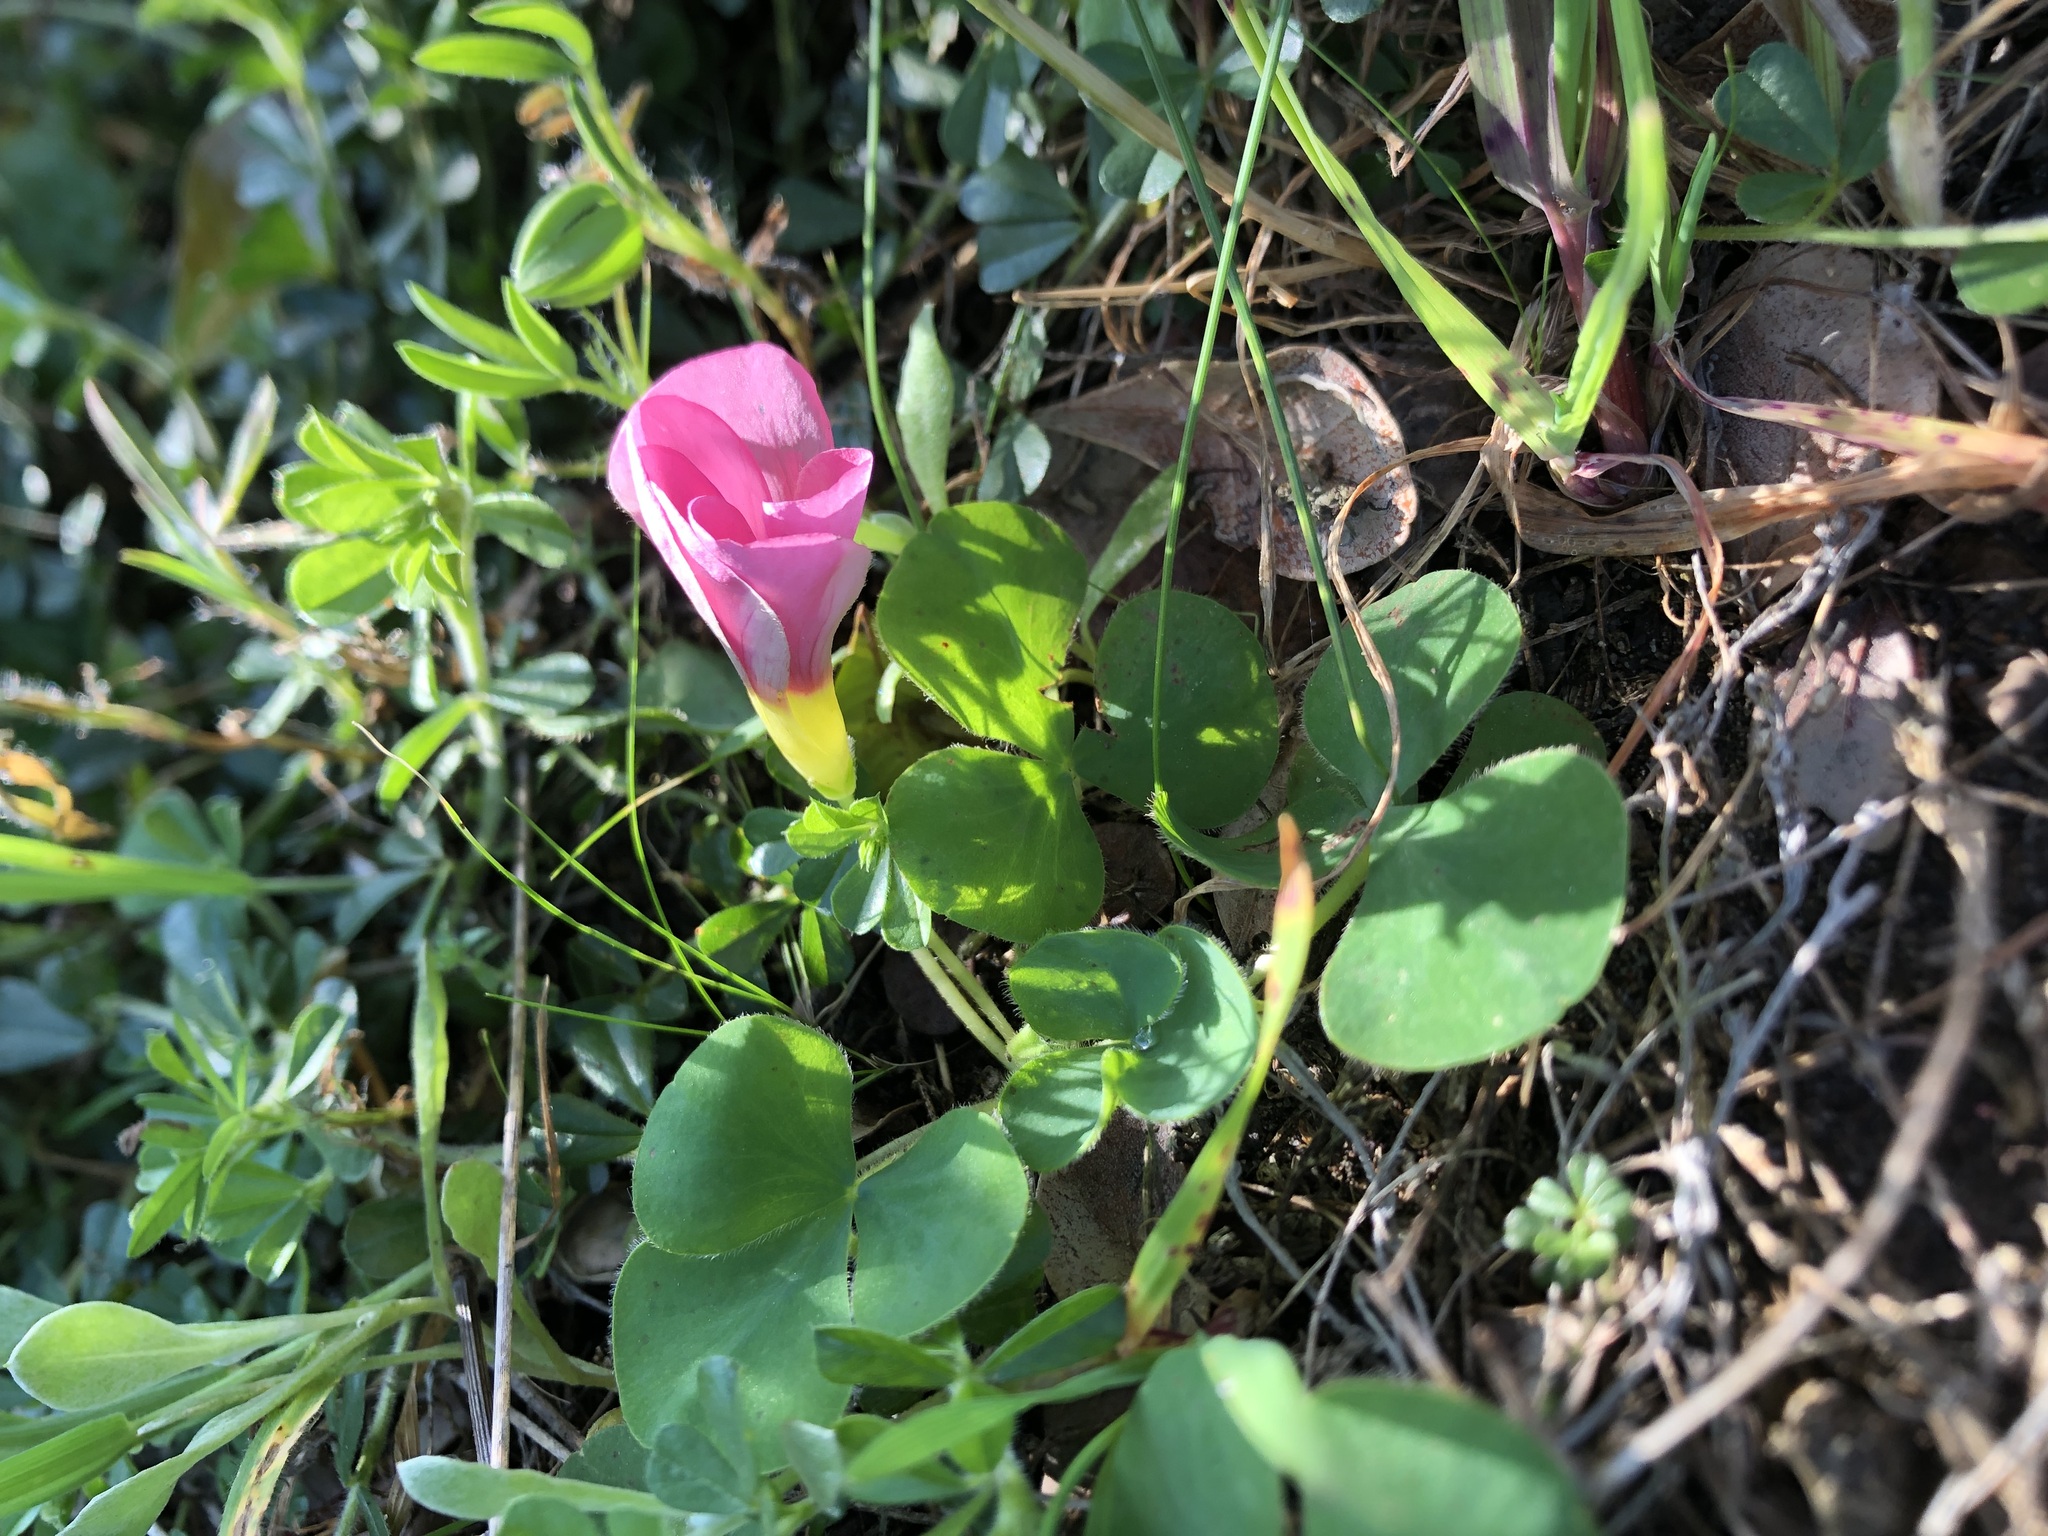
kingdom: Plantae
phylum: Tracheophyta
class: Magnoliopsida
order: Oxalidales
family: Oxalidaceae
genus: Oxalis
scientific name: Oxalis purpurea
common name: Purple woodsorrel
